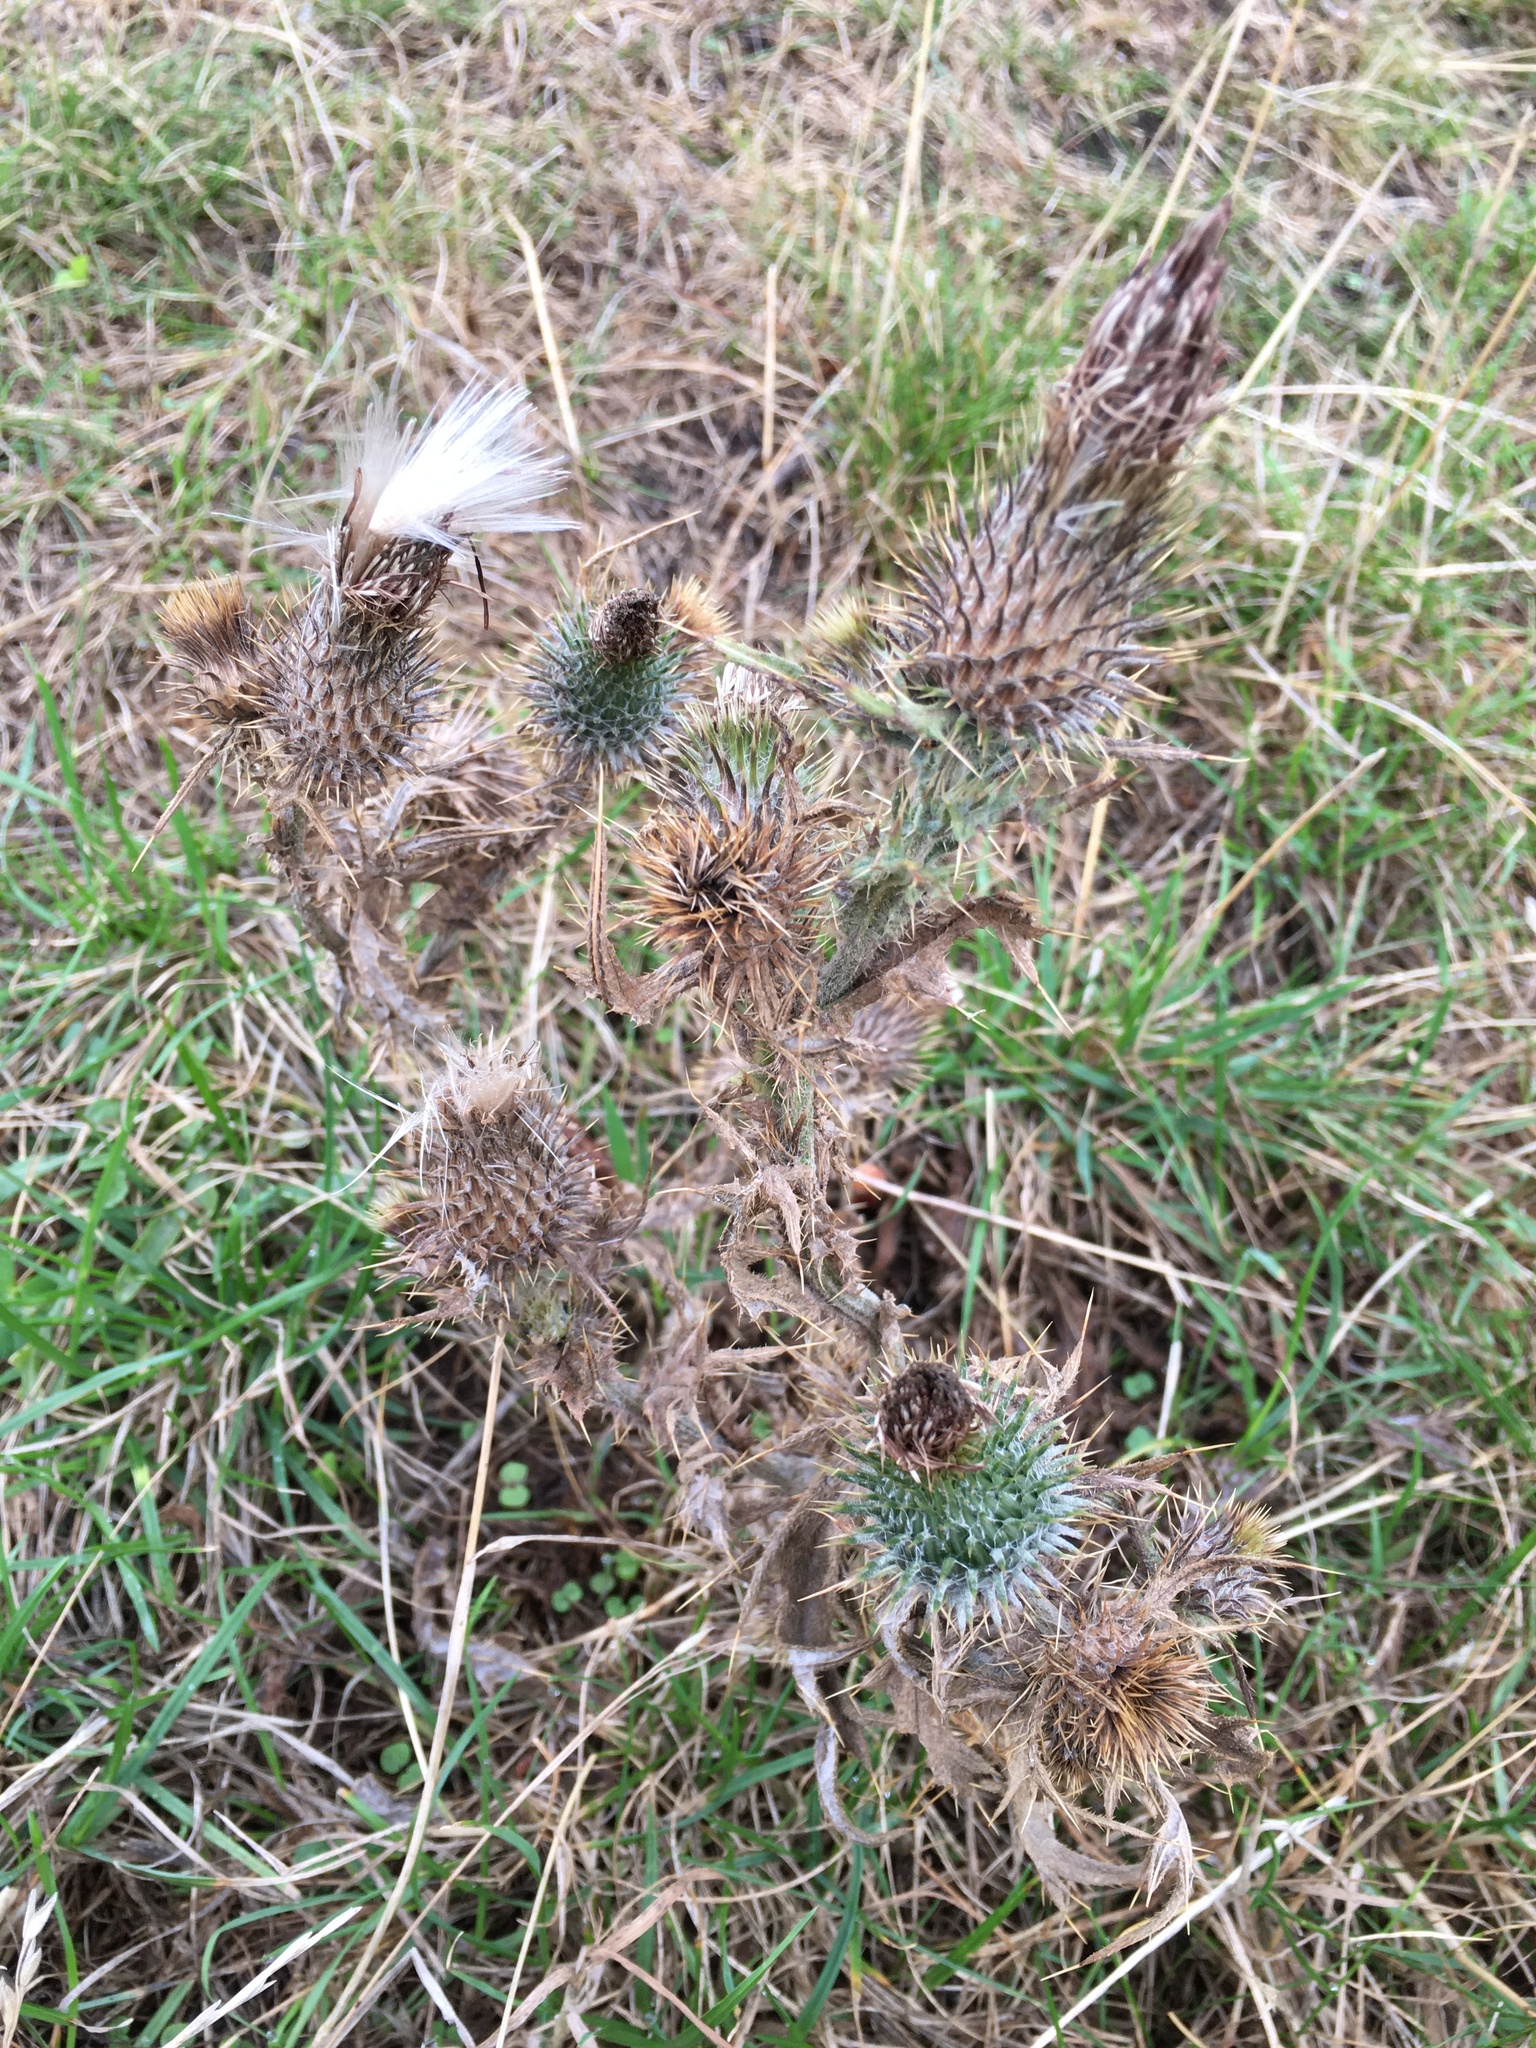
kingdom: Plantae
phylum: Tracheophyta
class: Magnoliopsida
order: Asterales
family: Asteraceae
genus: Cirsium
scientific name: Cirsium vulgare
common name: Bull thistle
